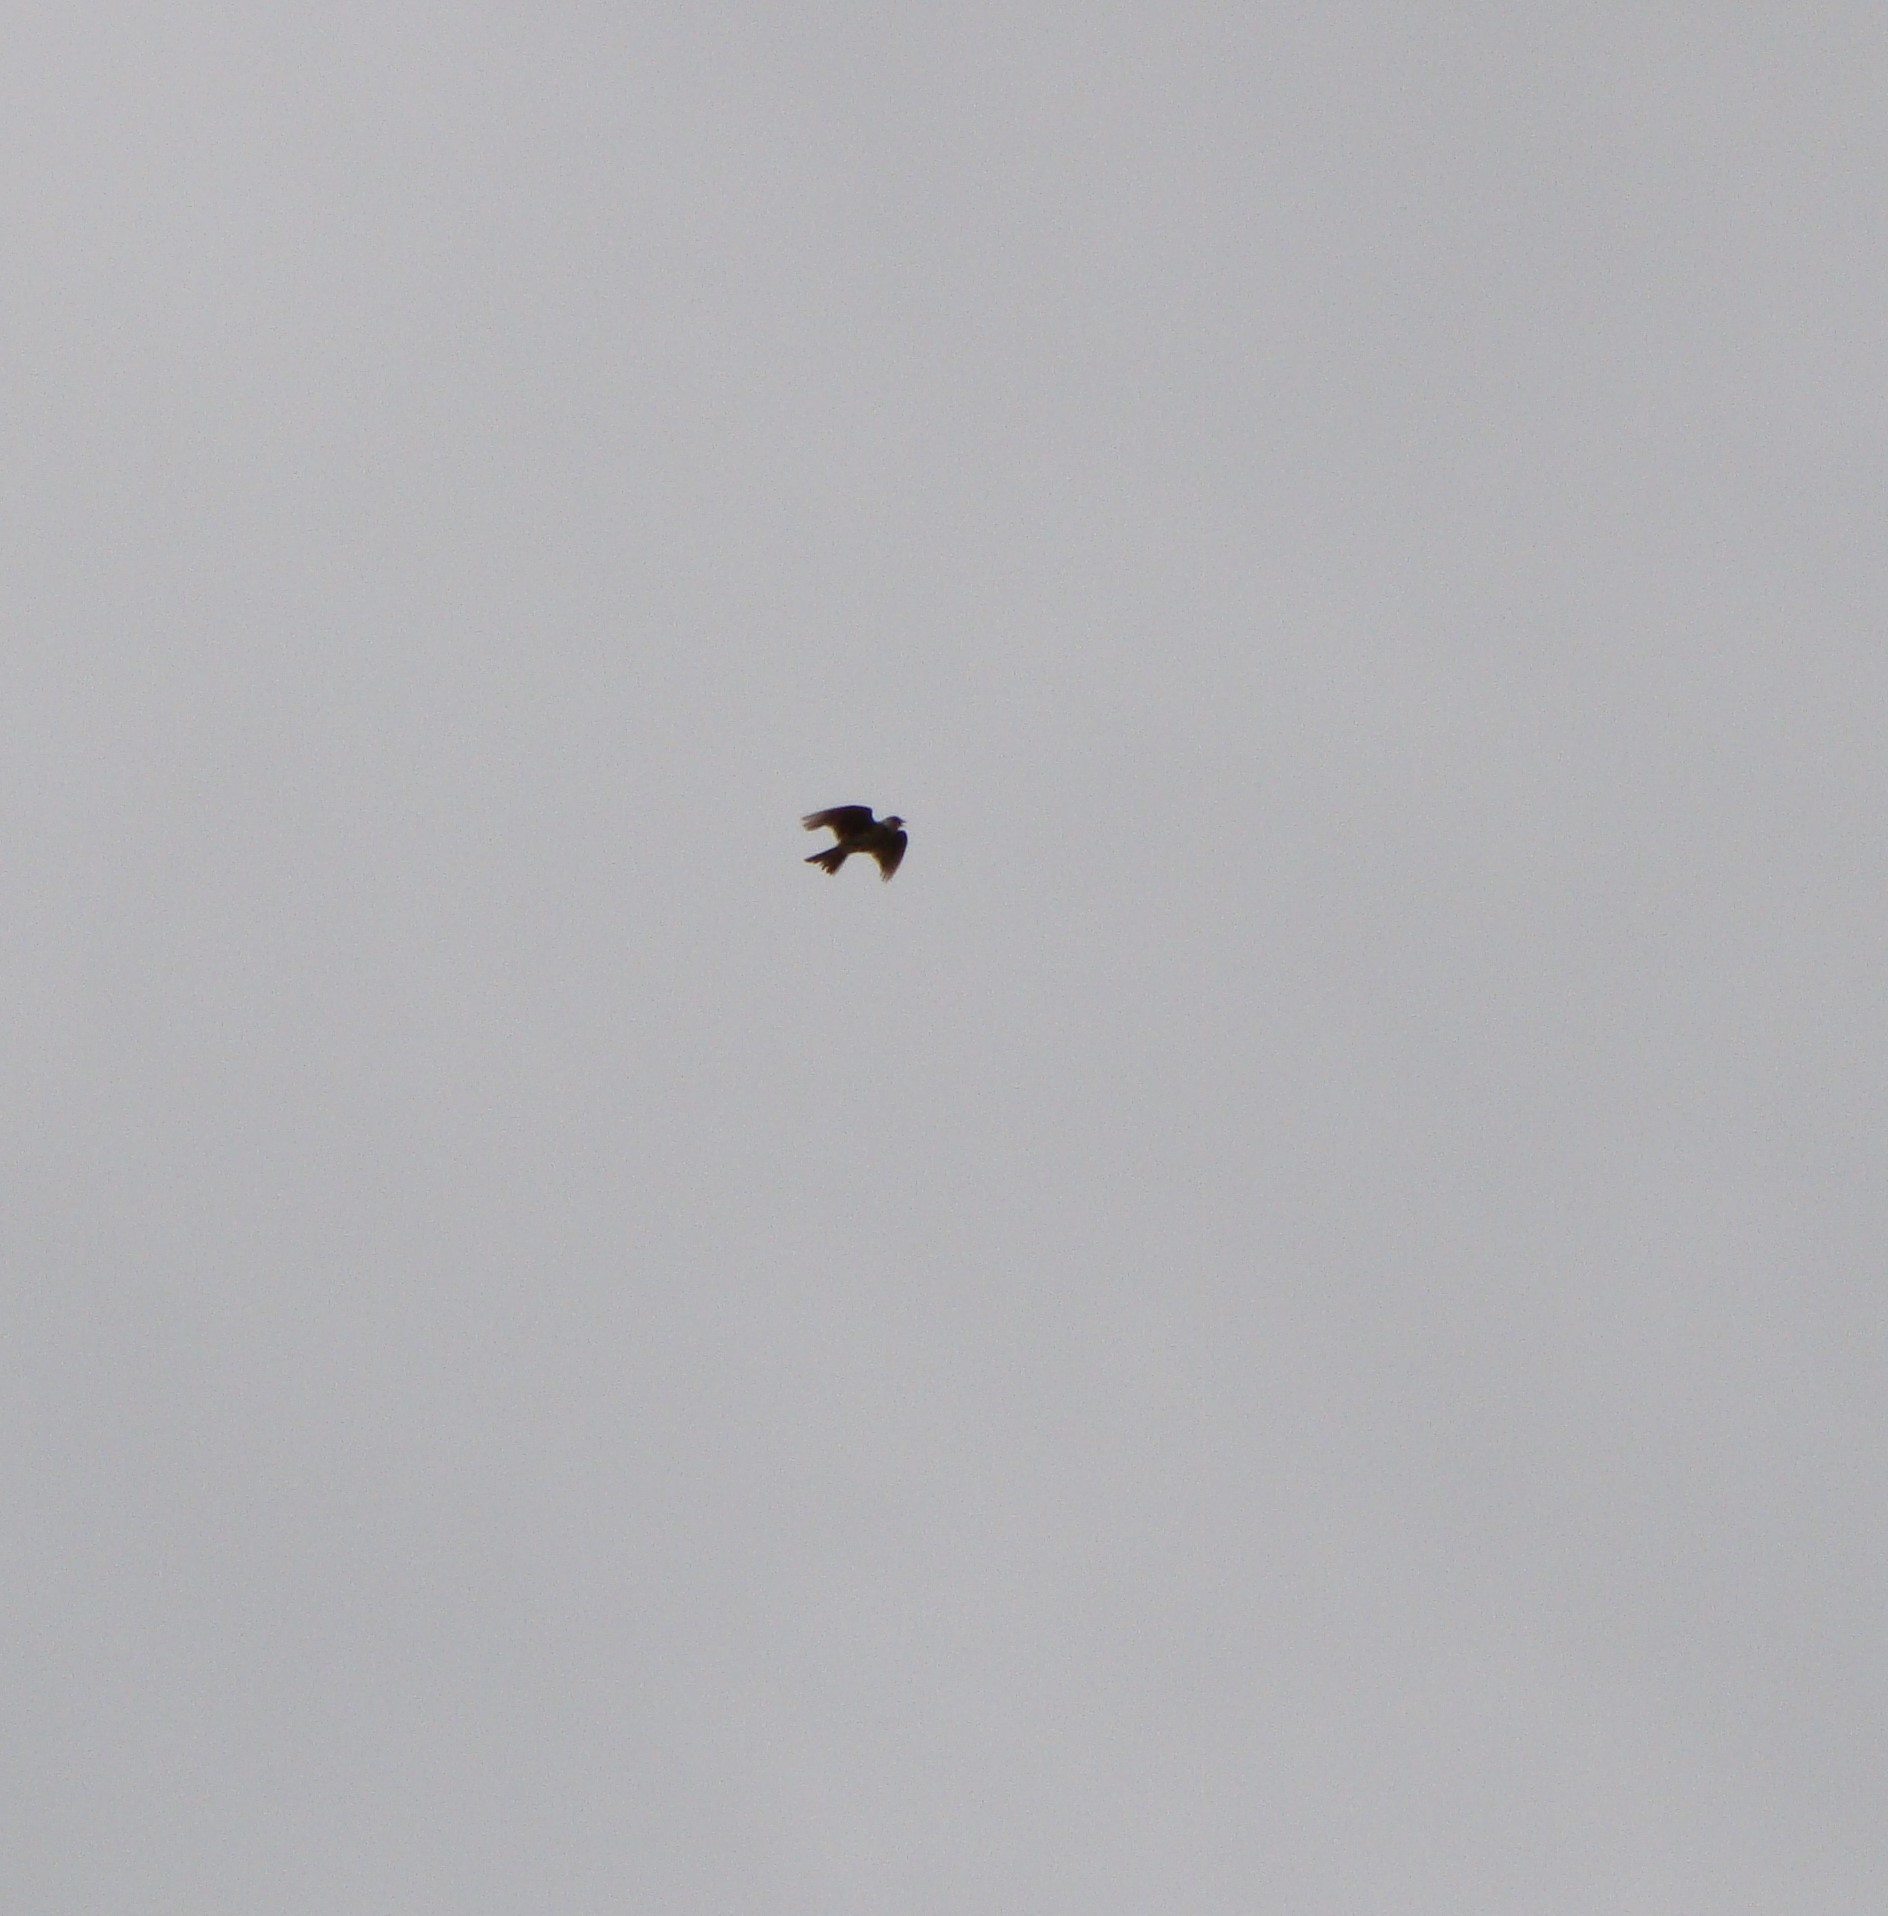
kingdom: Animalia
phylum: Chordata
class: Aves
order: Passeriformes
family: Alaudidae
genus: Alauda
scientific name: Alauda arvensis
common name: Eurasian skylark
